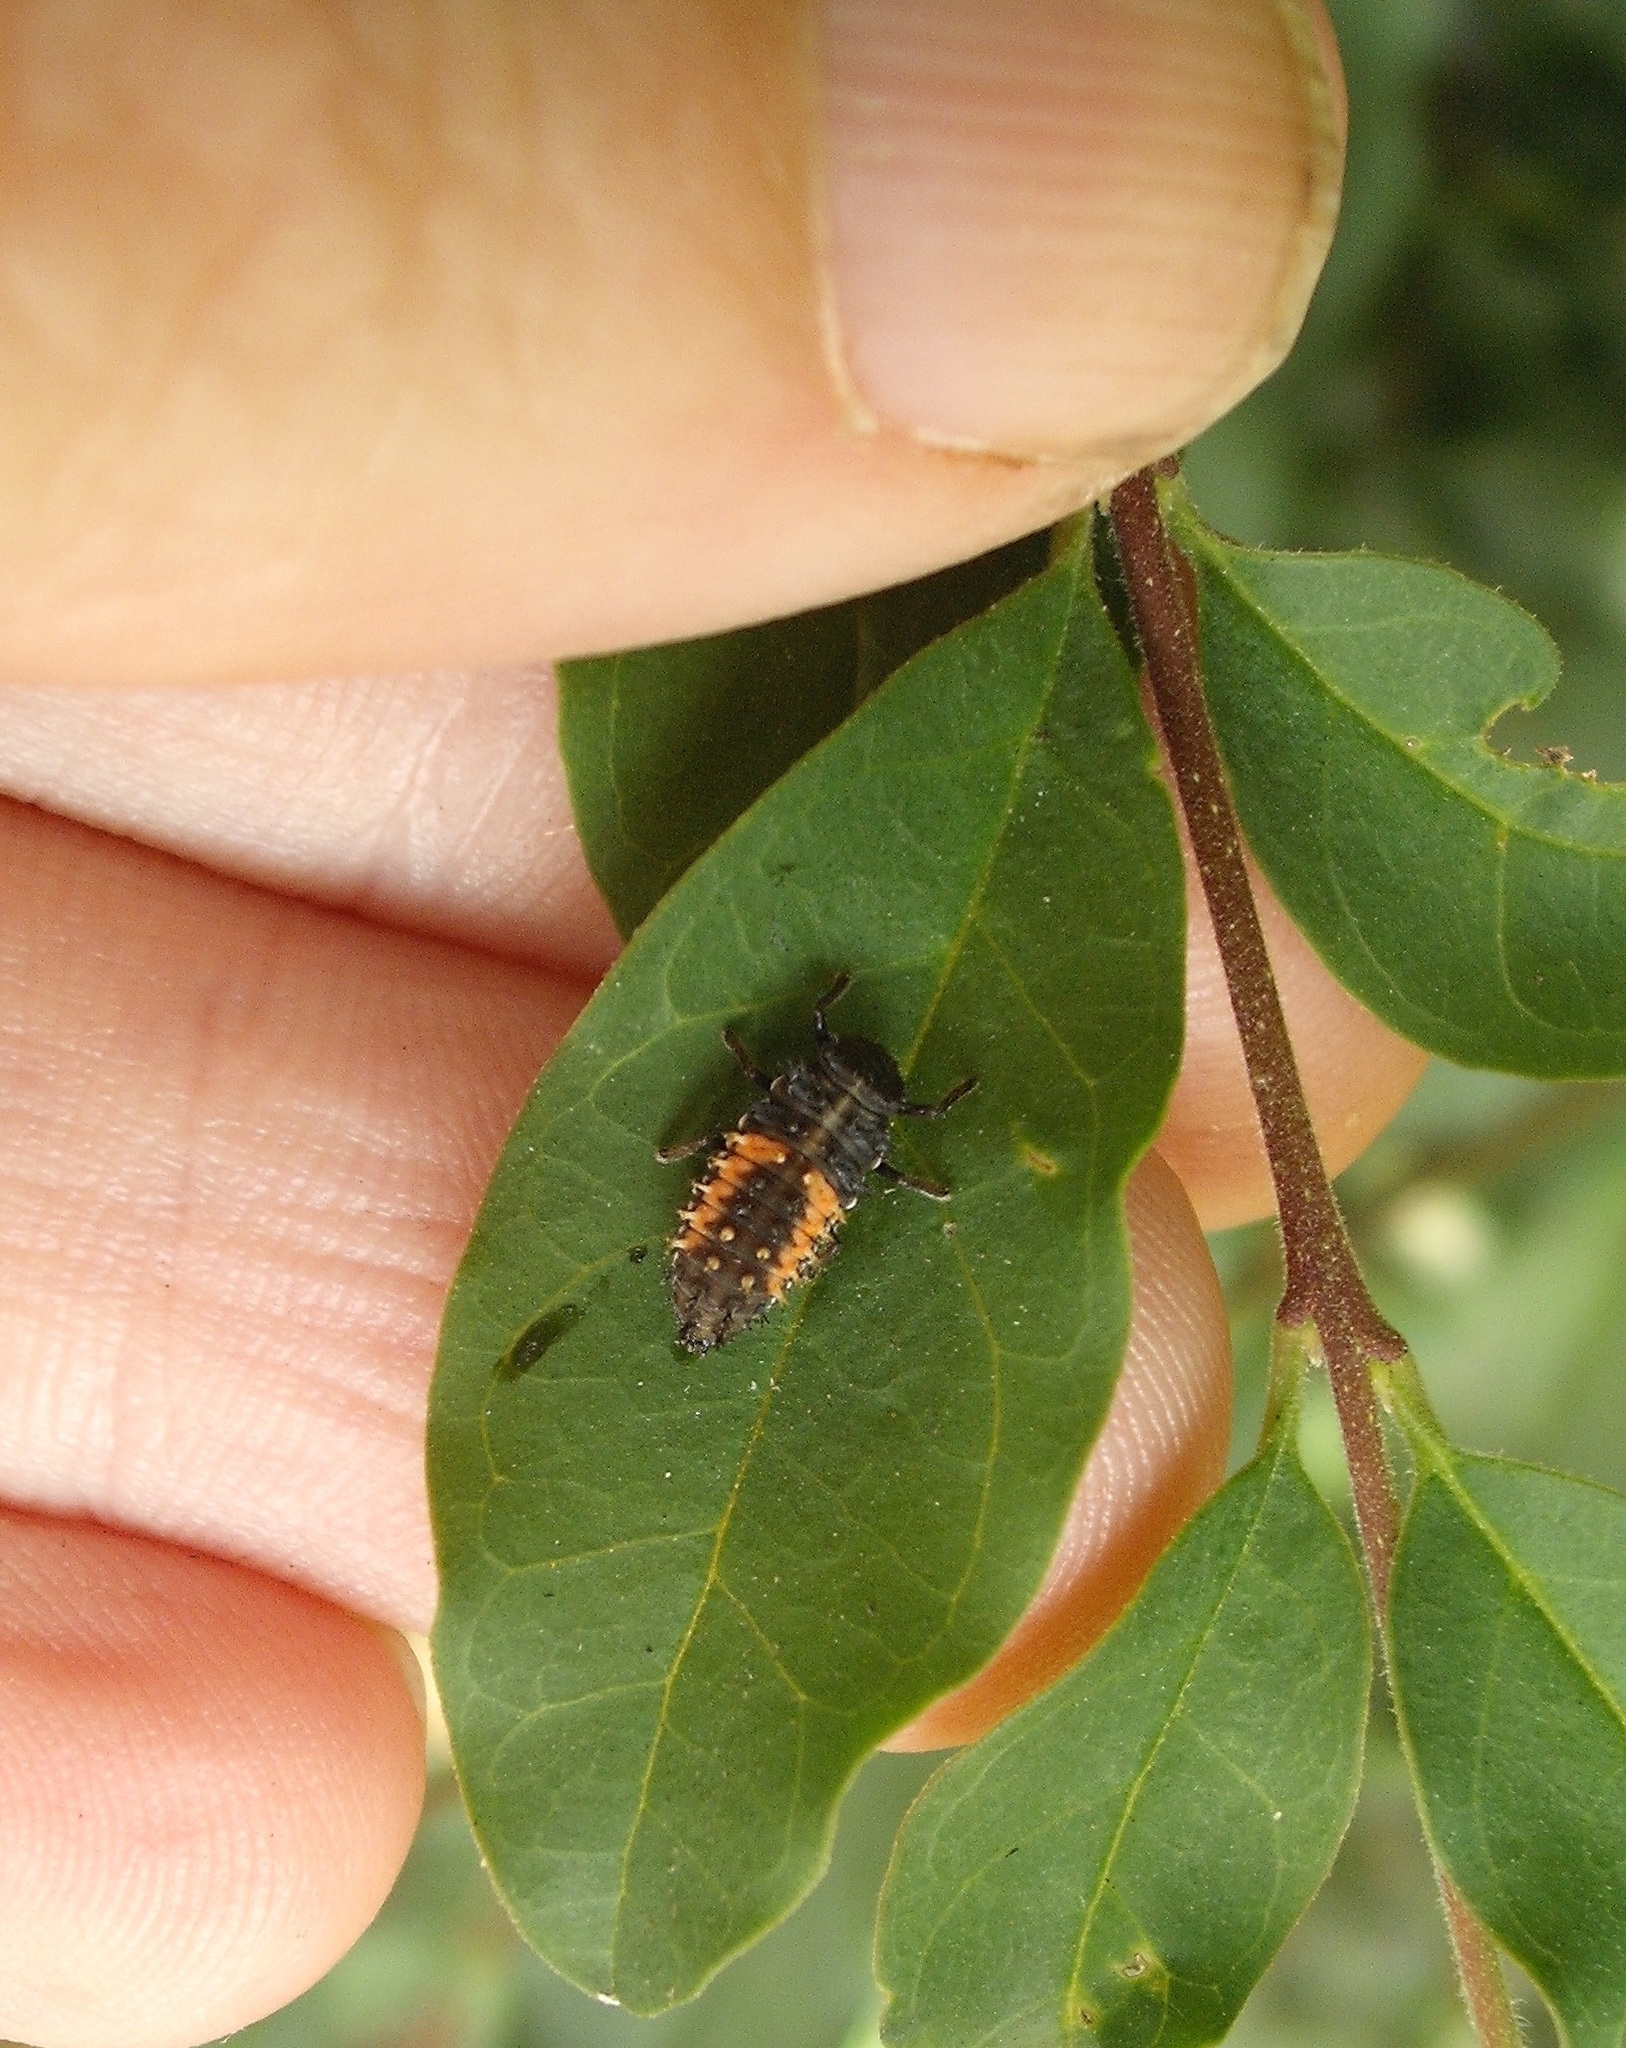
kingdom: Animalia
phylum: Arthropoda
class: Insecta
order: Coleoptera
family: Coccinellidae
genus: Harmonia
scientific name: Harmonia axyridis
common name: Harlequin ladybird
